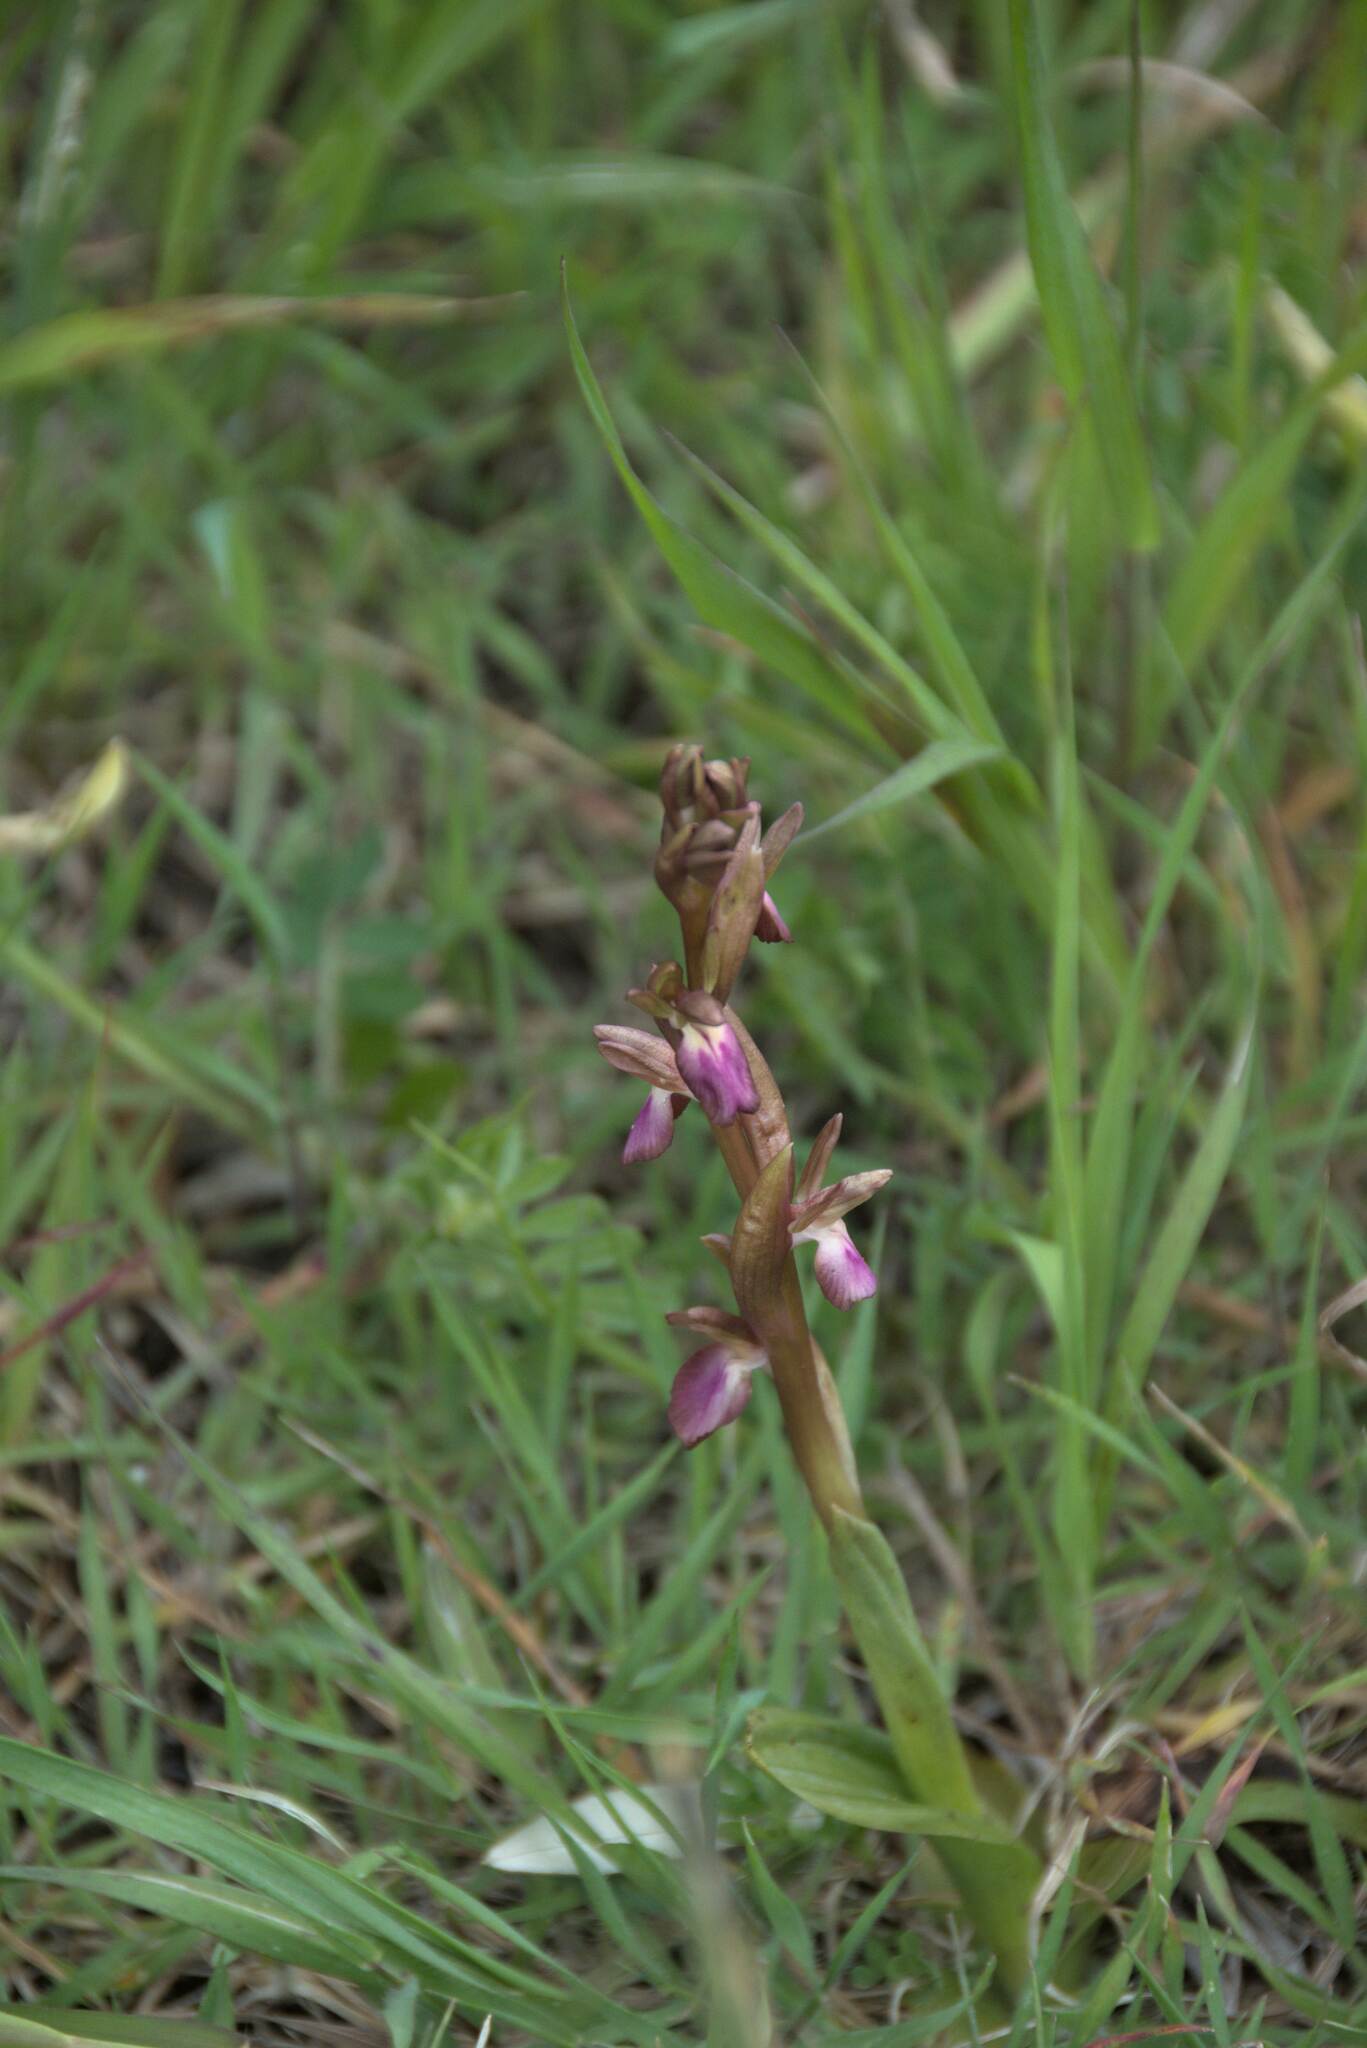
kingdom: Plantae
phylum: Tracheophyta
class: Liliopsida
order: Asparagales
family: Orchidaceae
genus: Anacamptis
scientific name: Anacamptis collina
